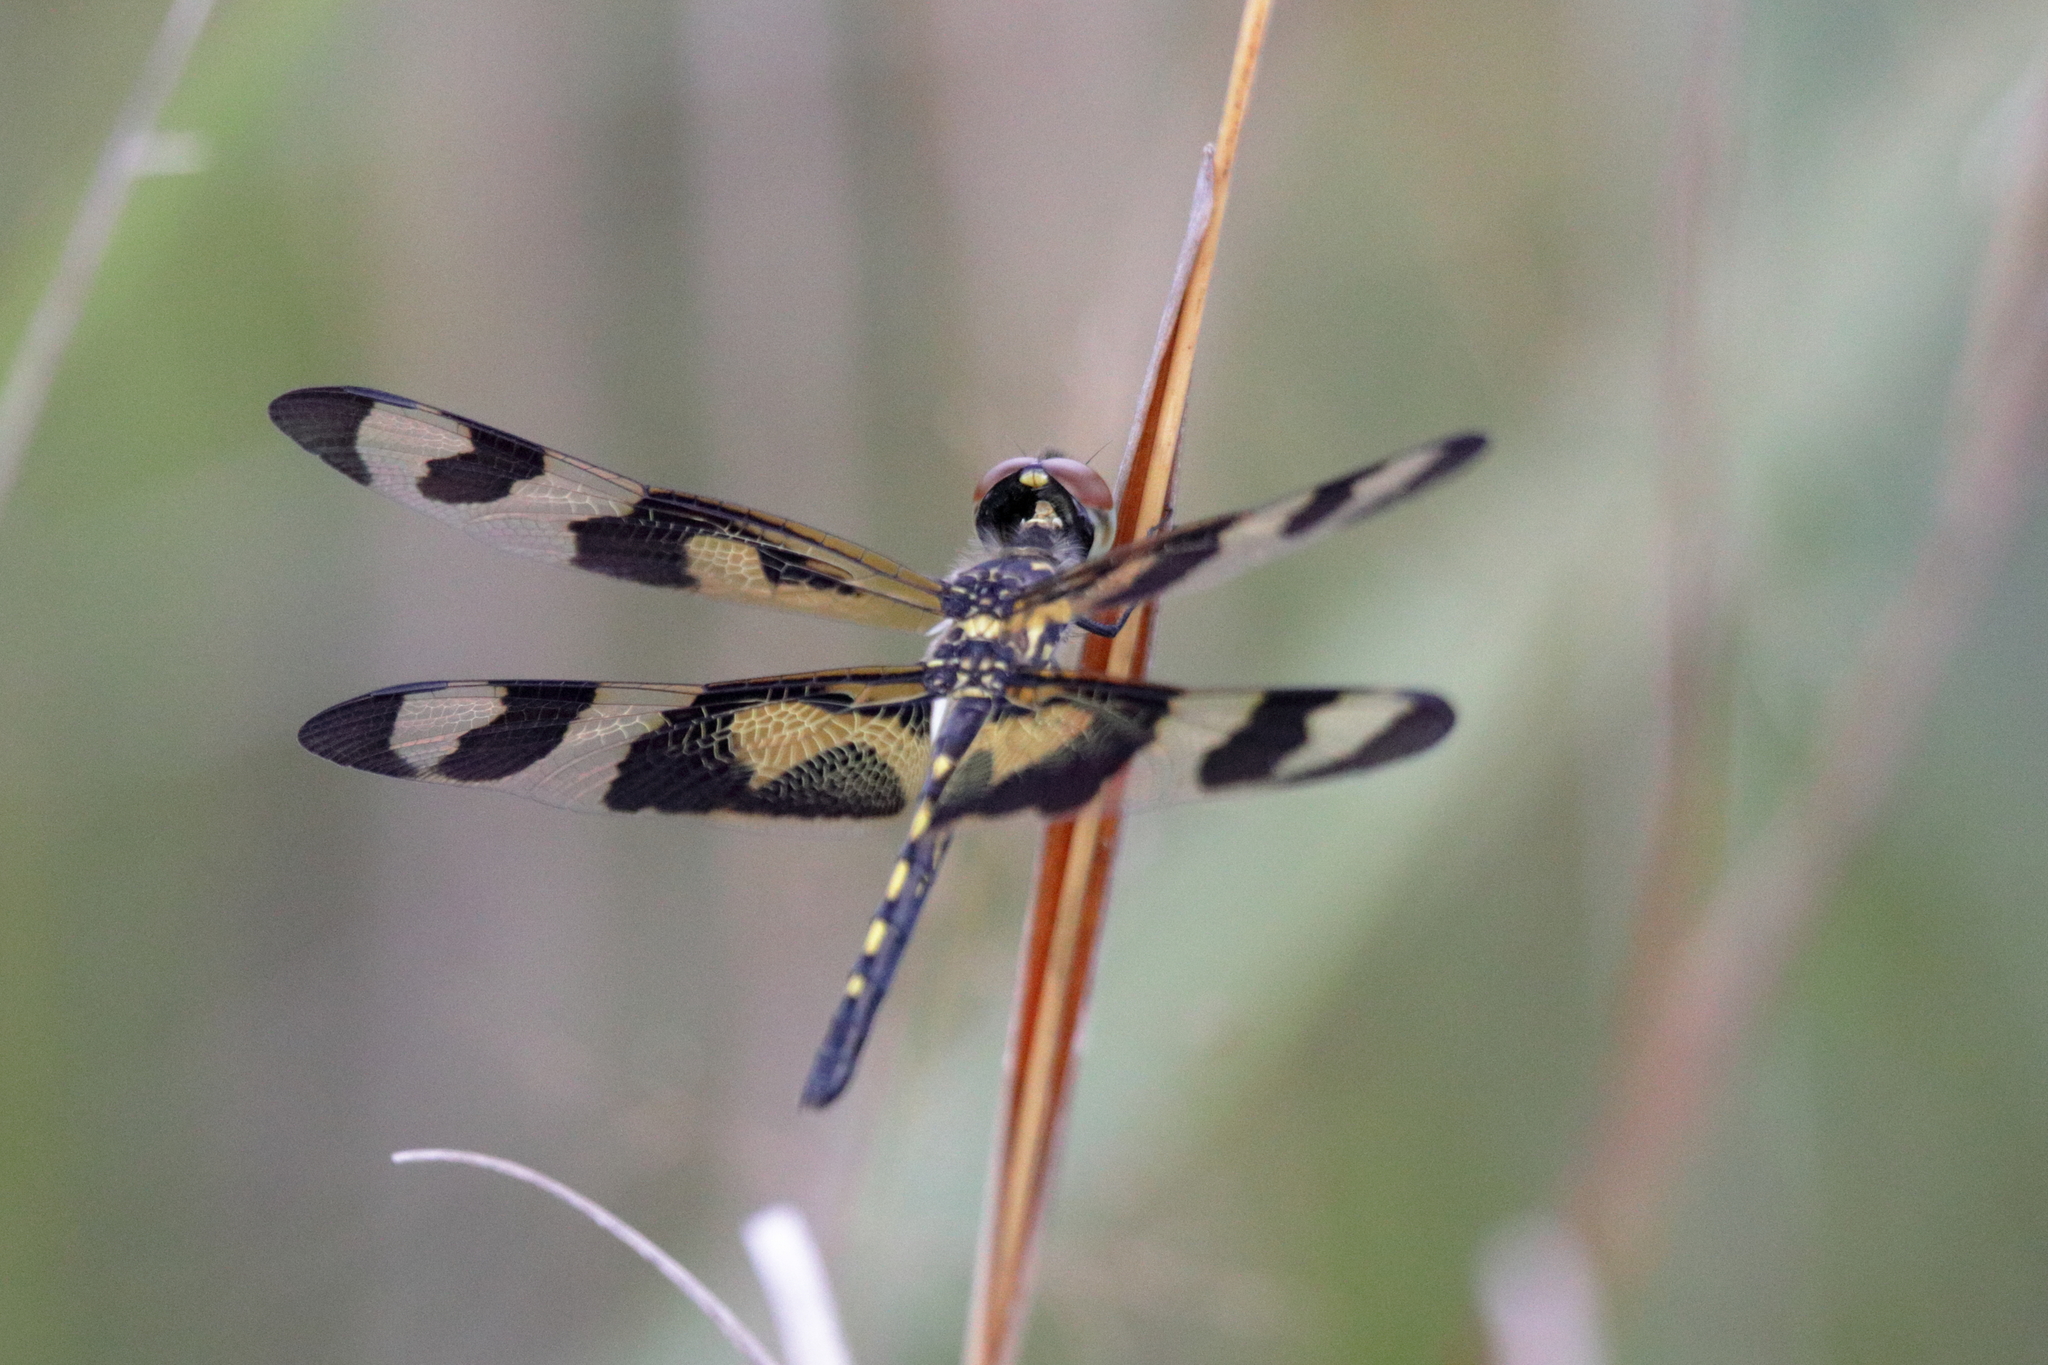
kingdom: Animalia
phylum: Arthropoda
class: Insecta
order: Odonata
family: Libellulidae
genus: Celithemis
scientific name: Celithemis fasciata
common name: Banded pennant
